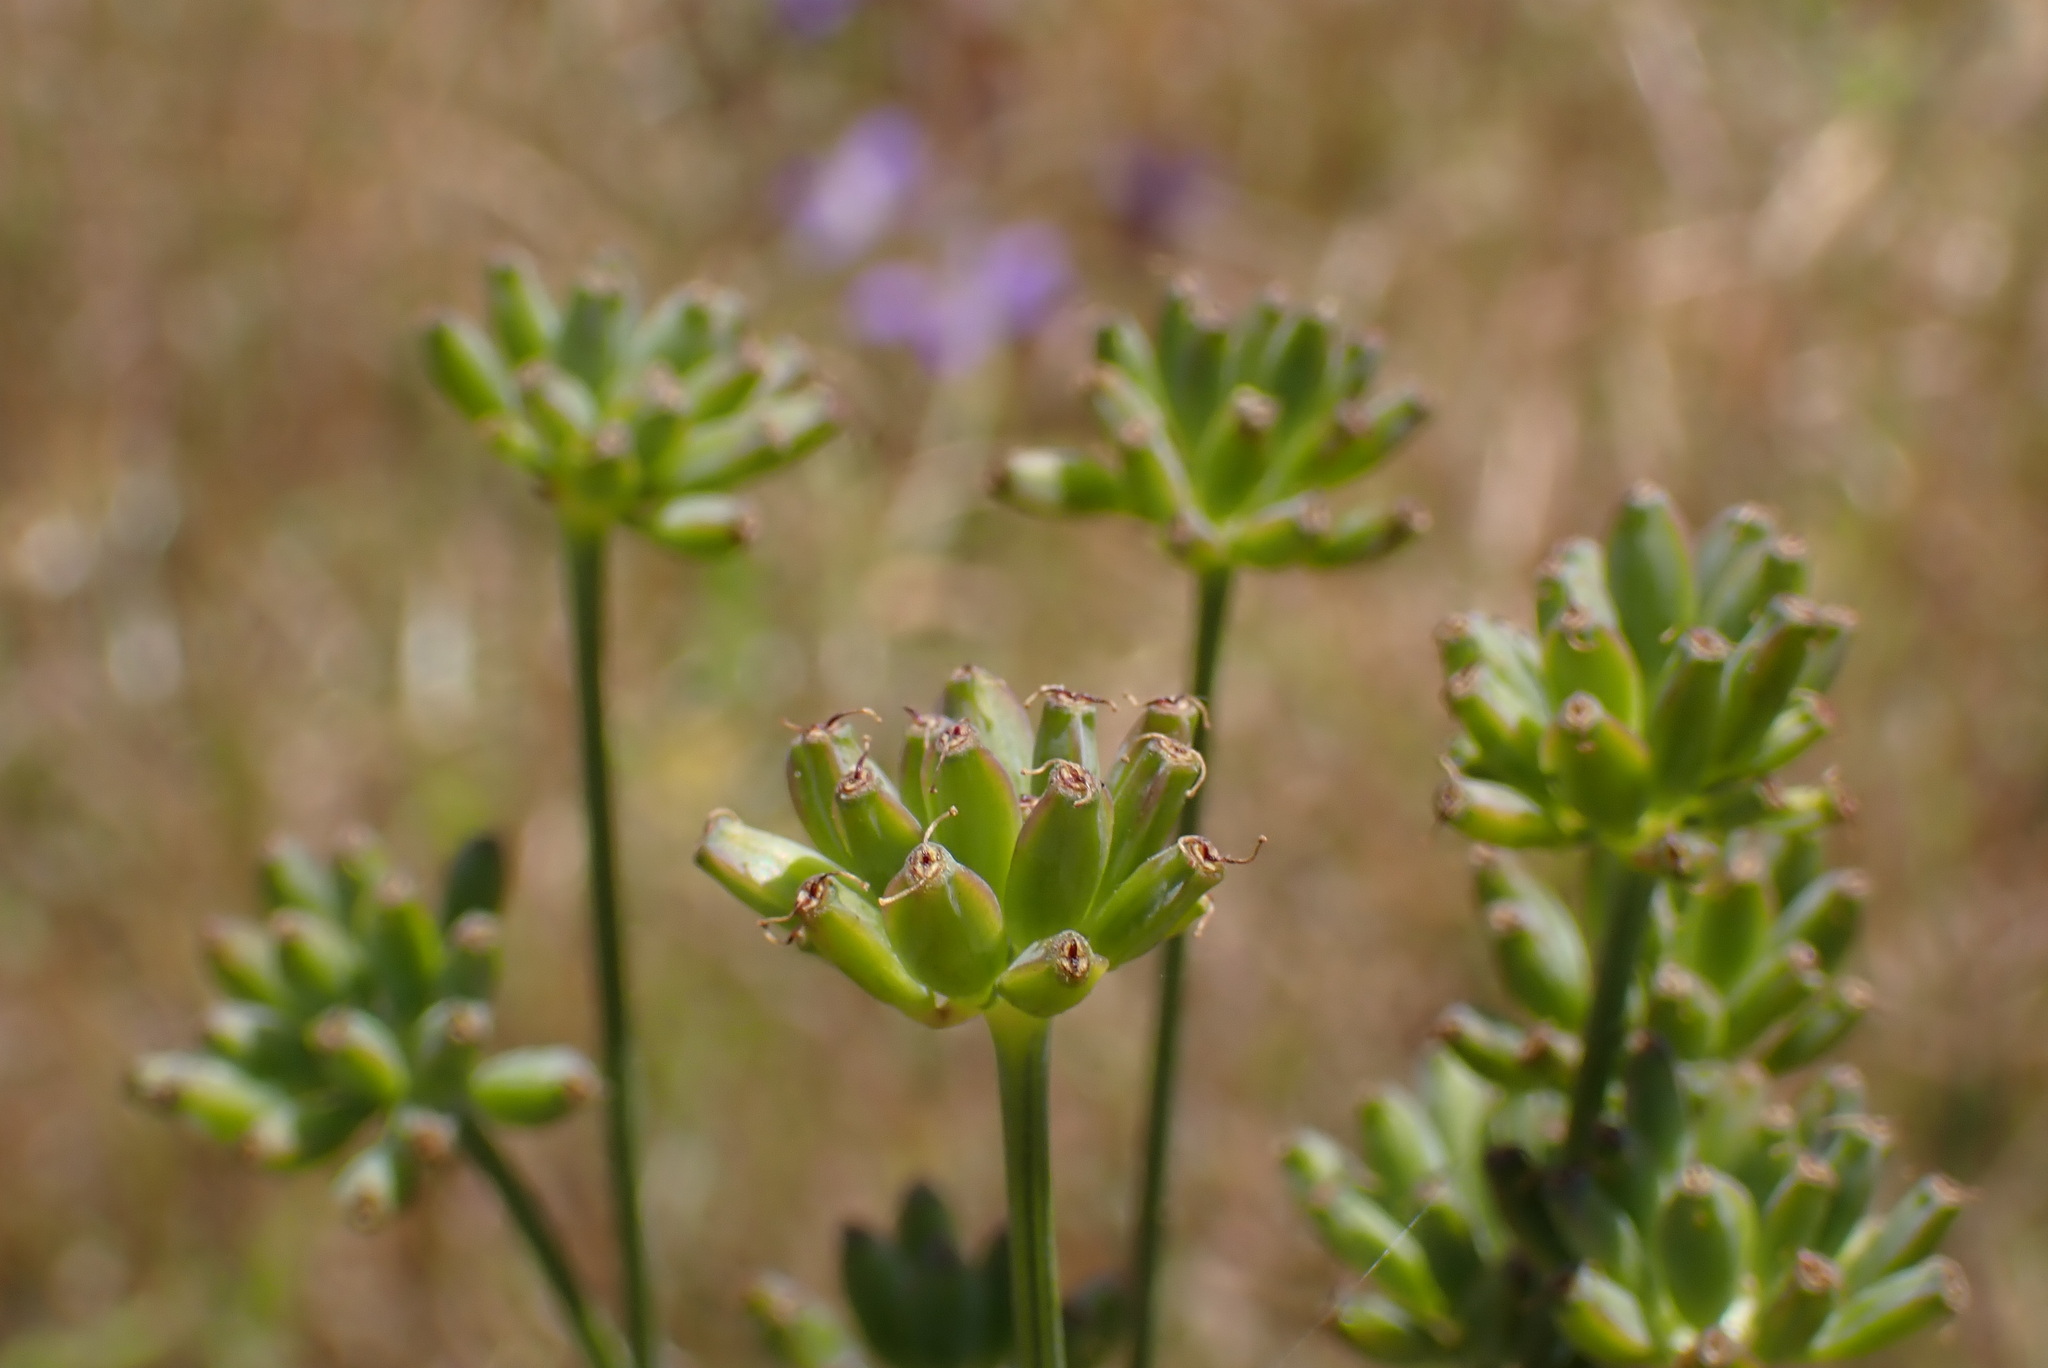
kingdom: Plantae
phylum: Tracheophyta
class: Magnoliopsida
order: Apiales
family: Apiaceae
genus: Lomatium
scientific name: Lomatium nudicaule
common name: Pestle lomatium
